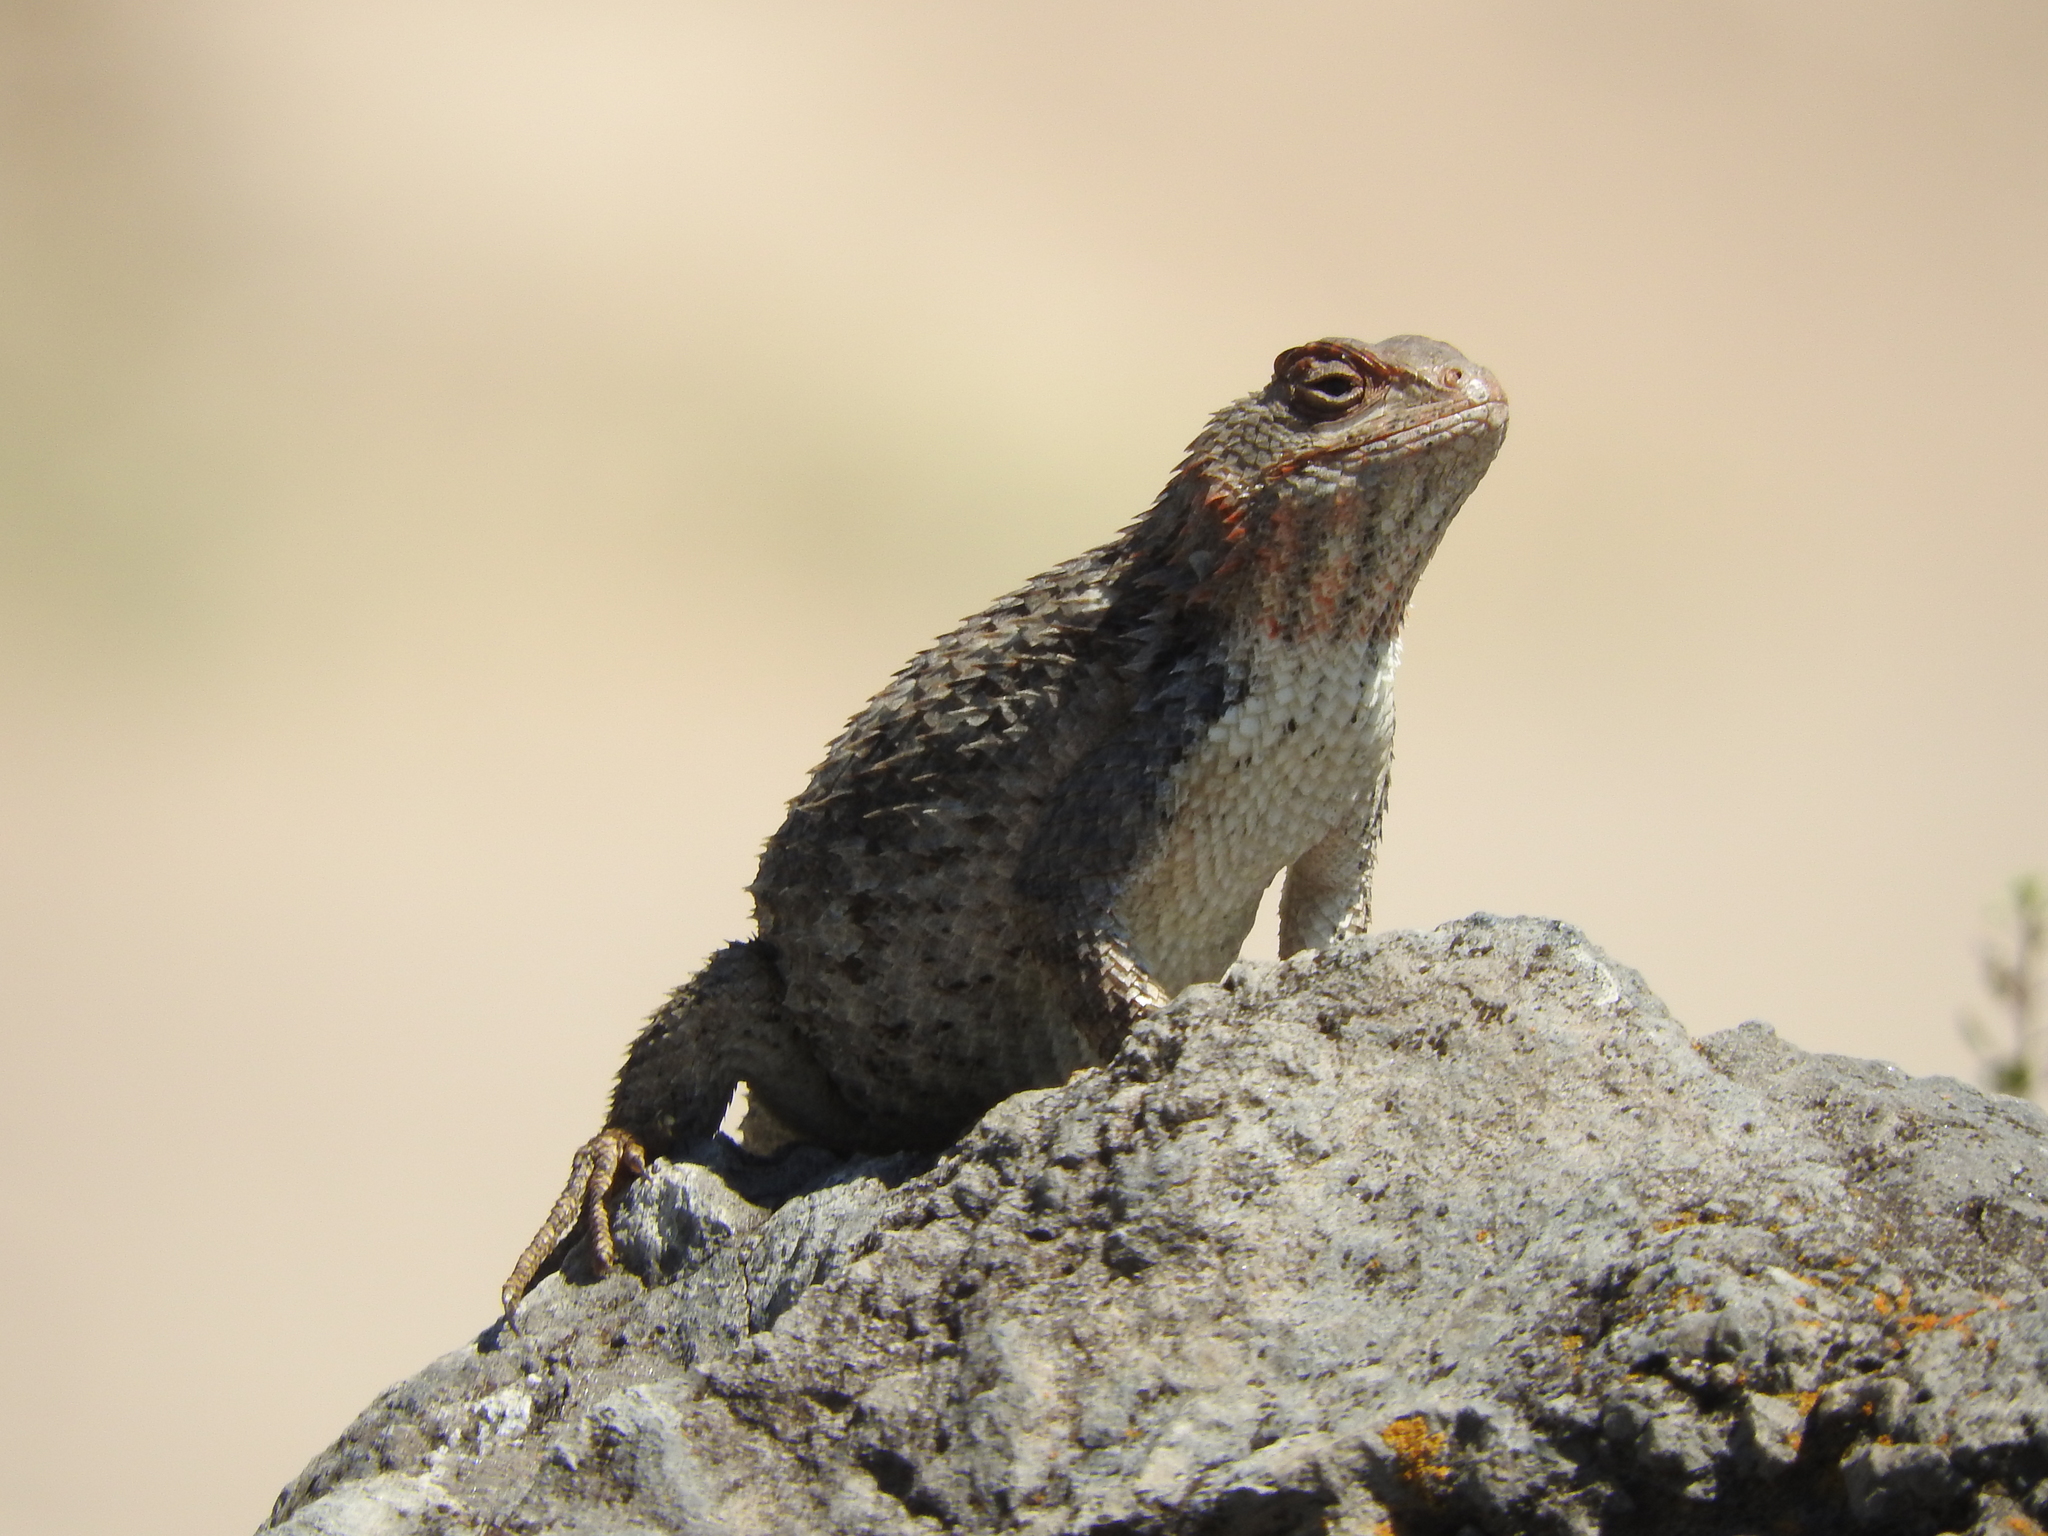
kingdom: Animalia
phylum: Chordata
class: Squamata
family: Phrynosomatidae
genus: Sceloporus
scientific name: Sceloporus spinosus
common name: Blue-spotted spiny lizard [caeruleopunctatus]
